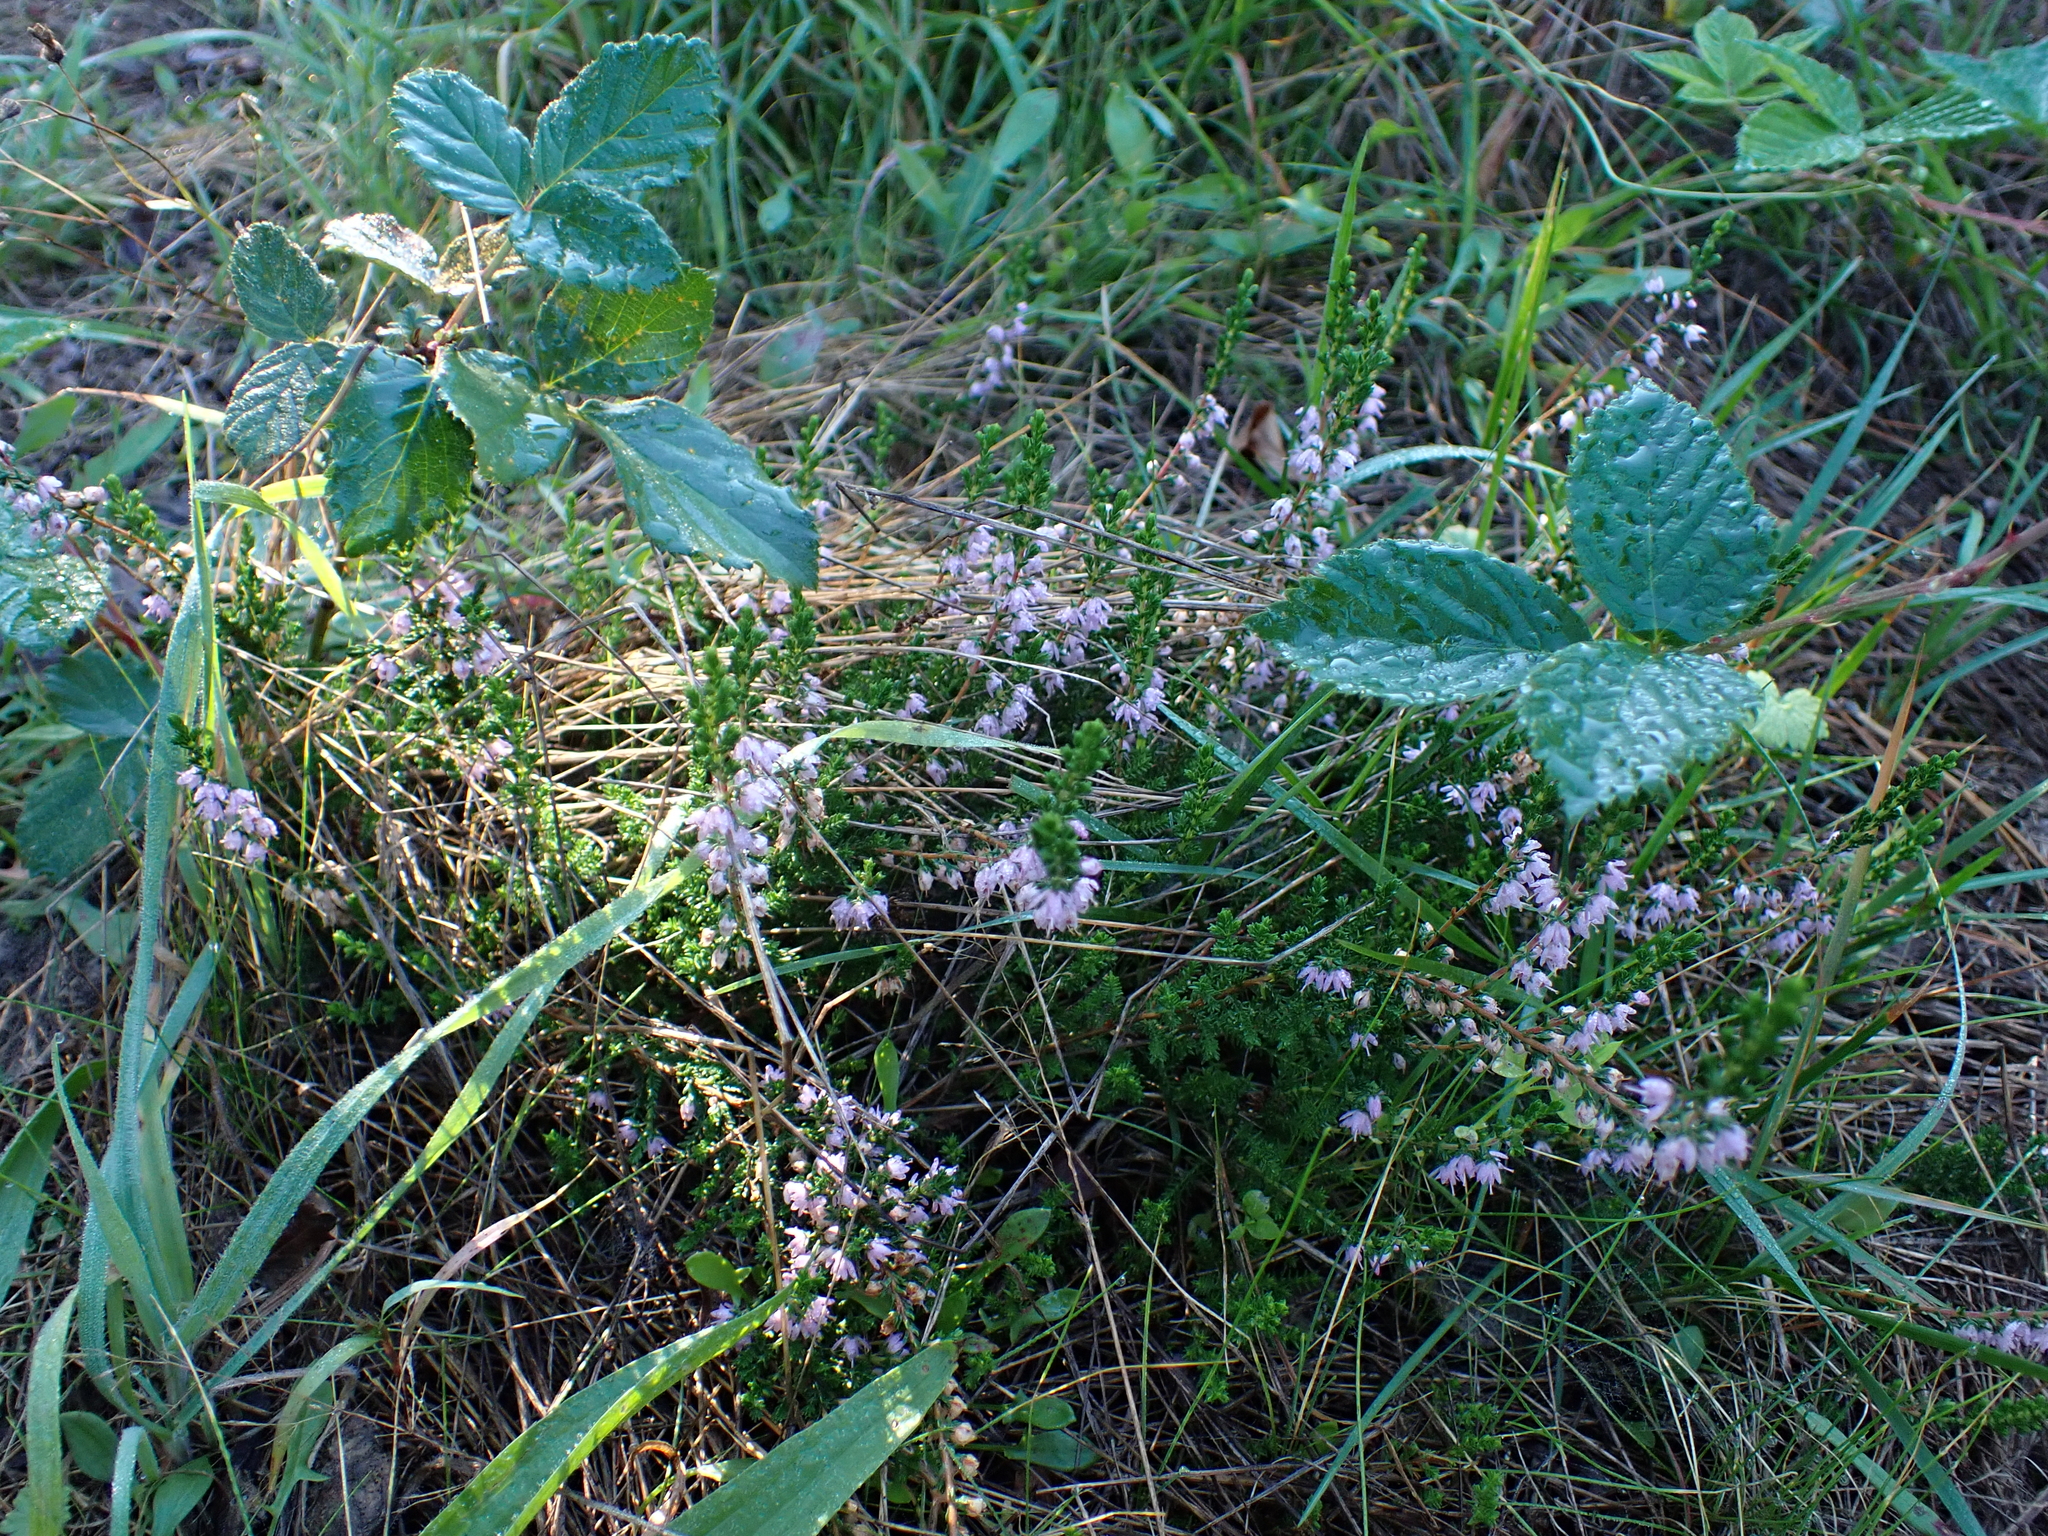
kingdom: Plantae
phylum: Tracheophyta
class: Magnoliopsida
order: Ericales
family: Ericaceae
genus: Calluna
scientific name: Calluna vulgaris
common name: Heather
